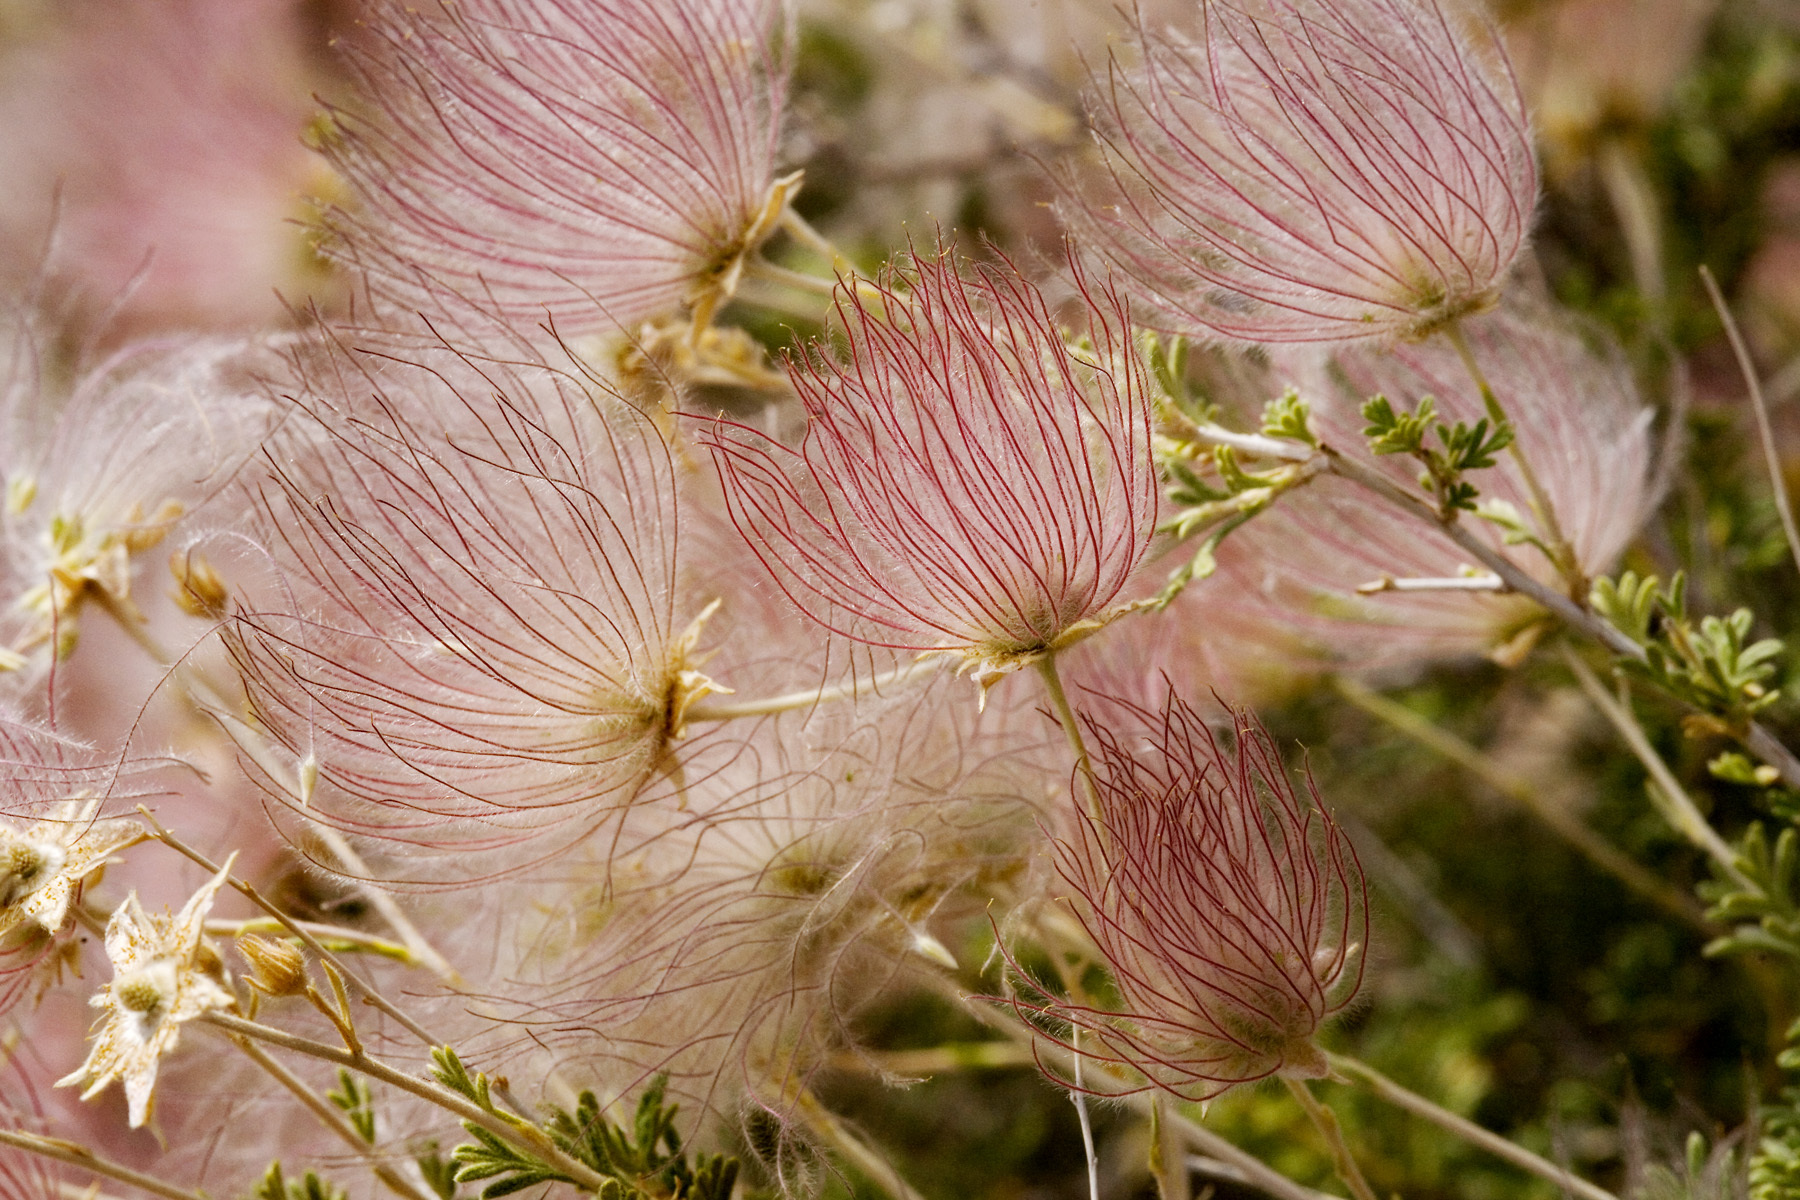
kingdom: Plantae
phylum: Tracheophyta
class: Magnoliopsida
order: Rosales
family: Rosaceae
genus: Fallugia
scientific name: Fallugia paradoxa
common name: Apache-plume
